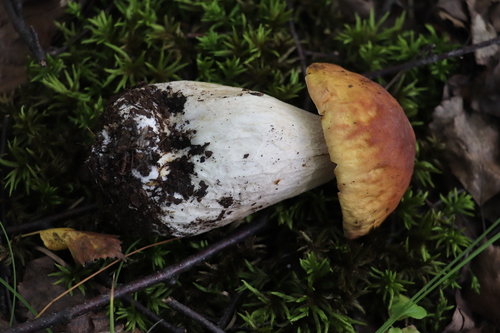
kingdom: Fungi
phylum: Basidiomycota
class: Agaricomycetes
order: Boletales
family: Boletaceae
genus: Boletus
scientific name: Boletus edulis
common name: Cep
